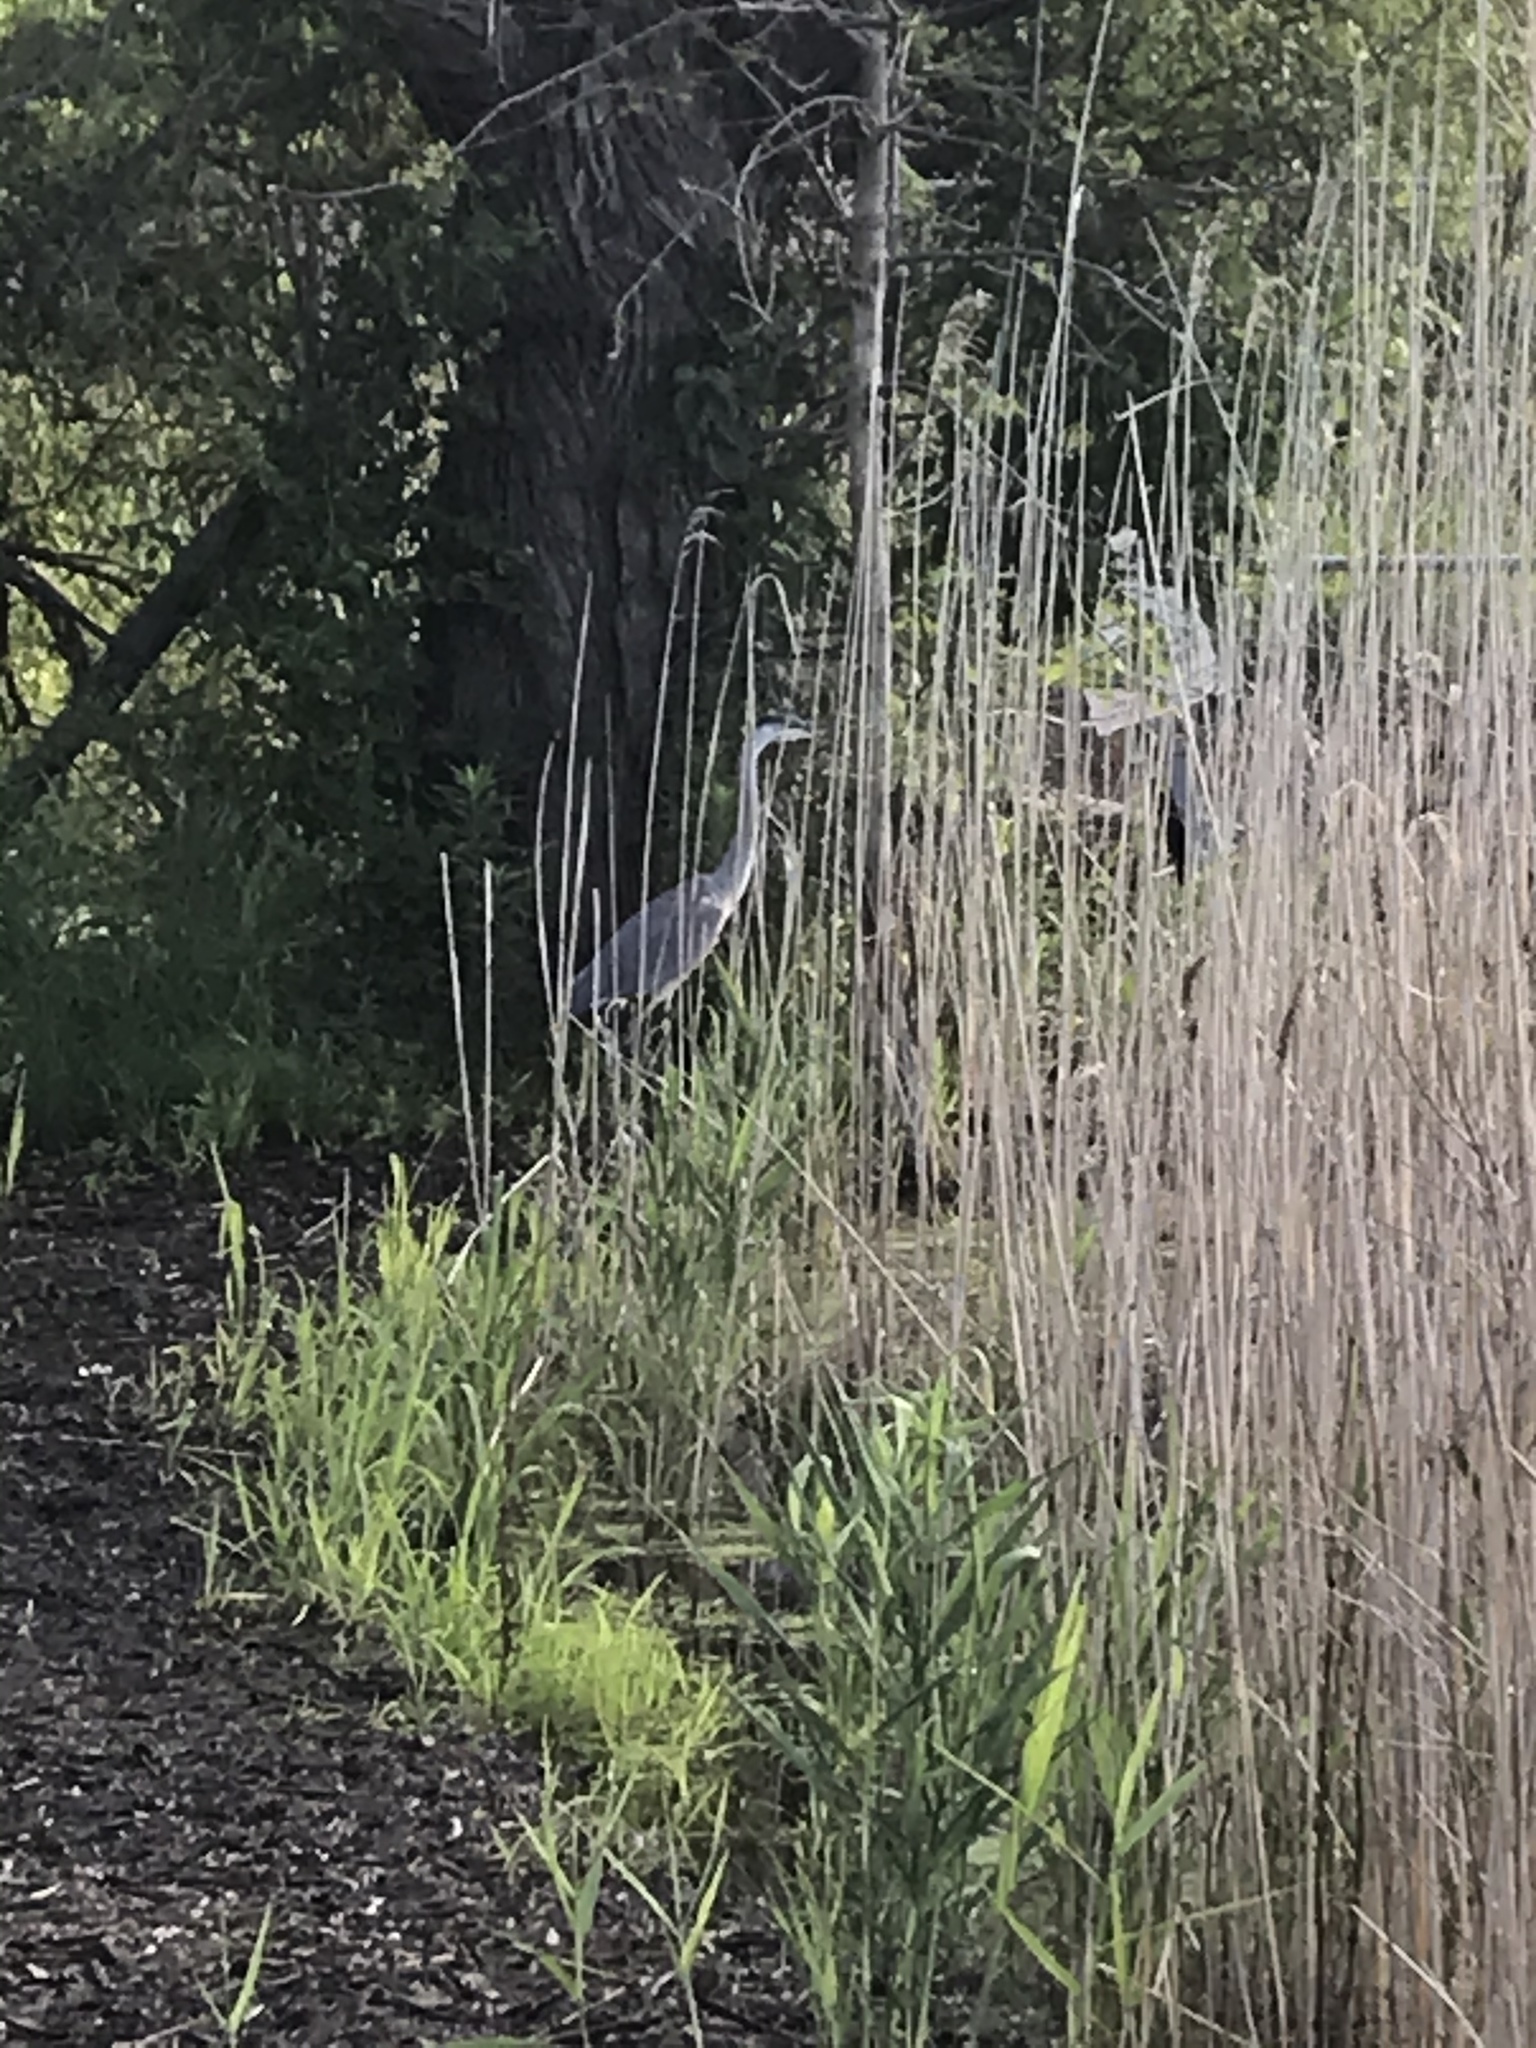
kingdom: Animalia
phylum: Chordata
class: Aves
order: Pelecaniformes
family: Ardeidae
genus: Ardea
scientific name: Ardea herodias
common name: Great blue heron
